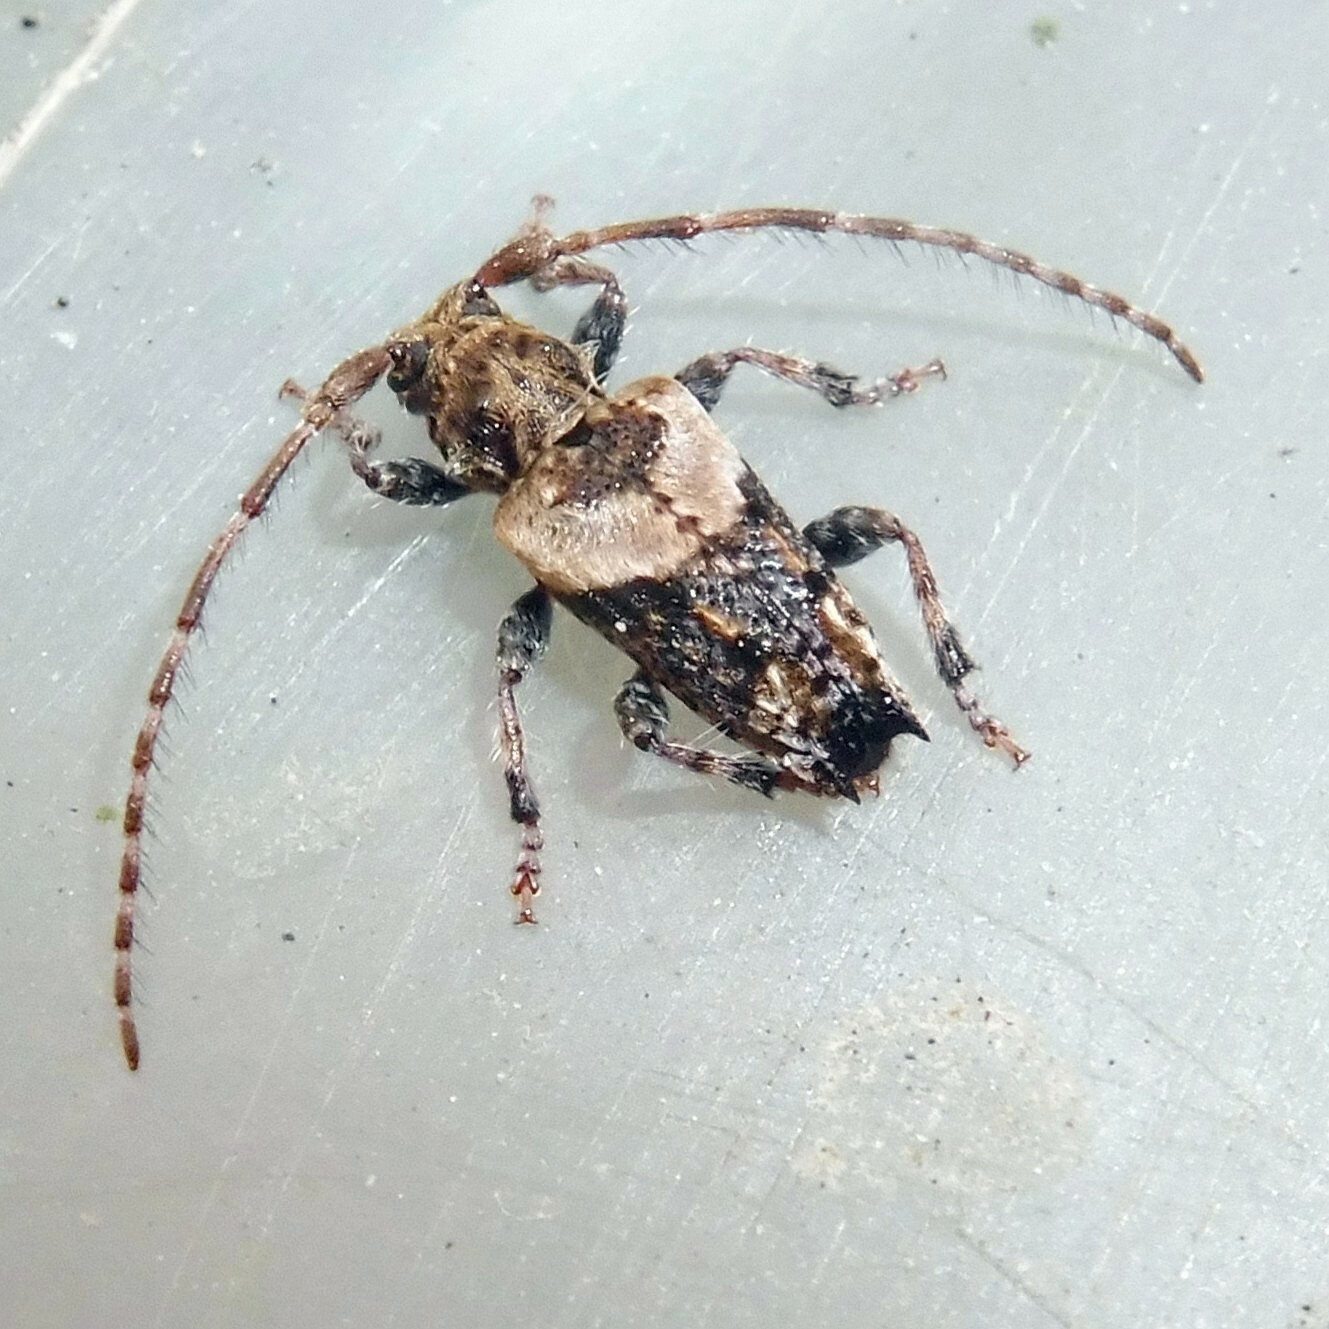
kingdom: Animalia
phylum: Arthropoda
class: Insecta
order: Coleoptera
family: Cerambycidae
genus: Pogonocherus
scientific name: Pogonocherus hispidus
